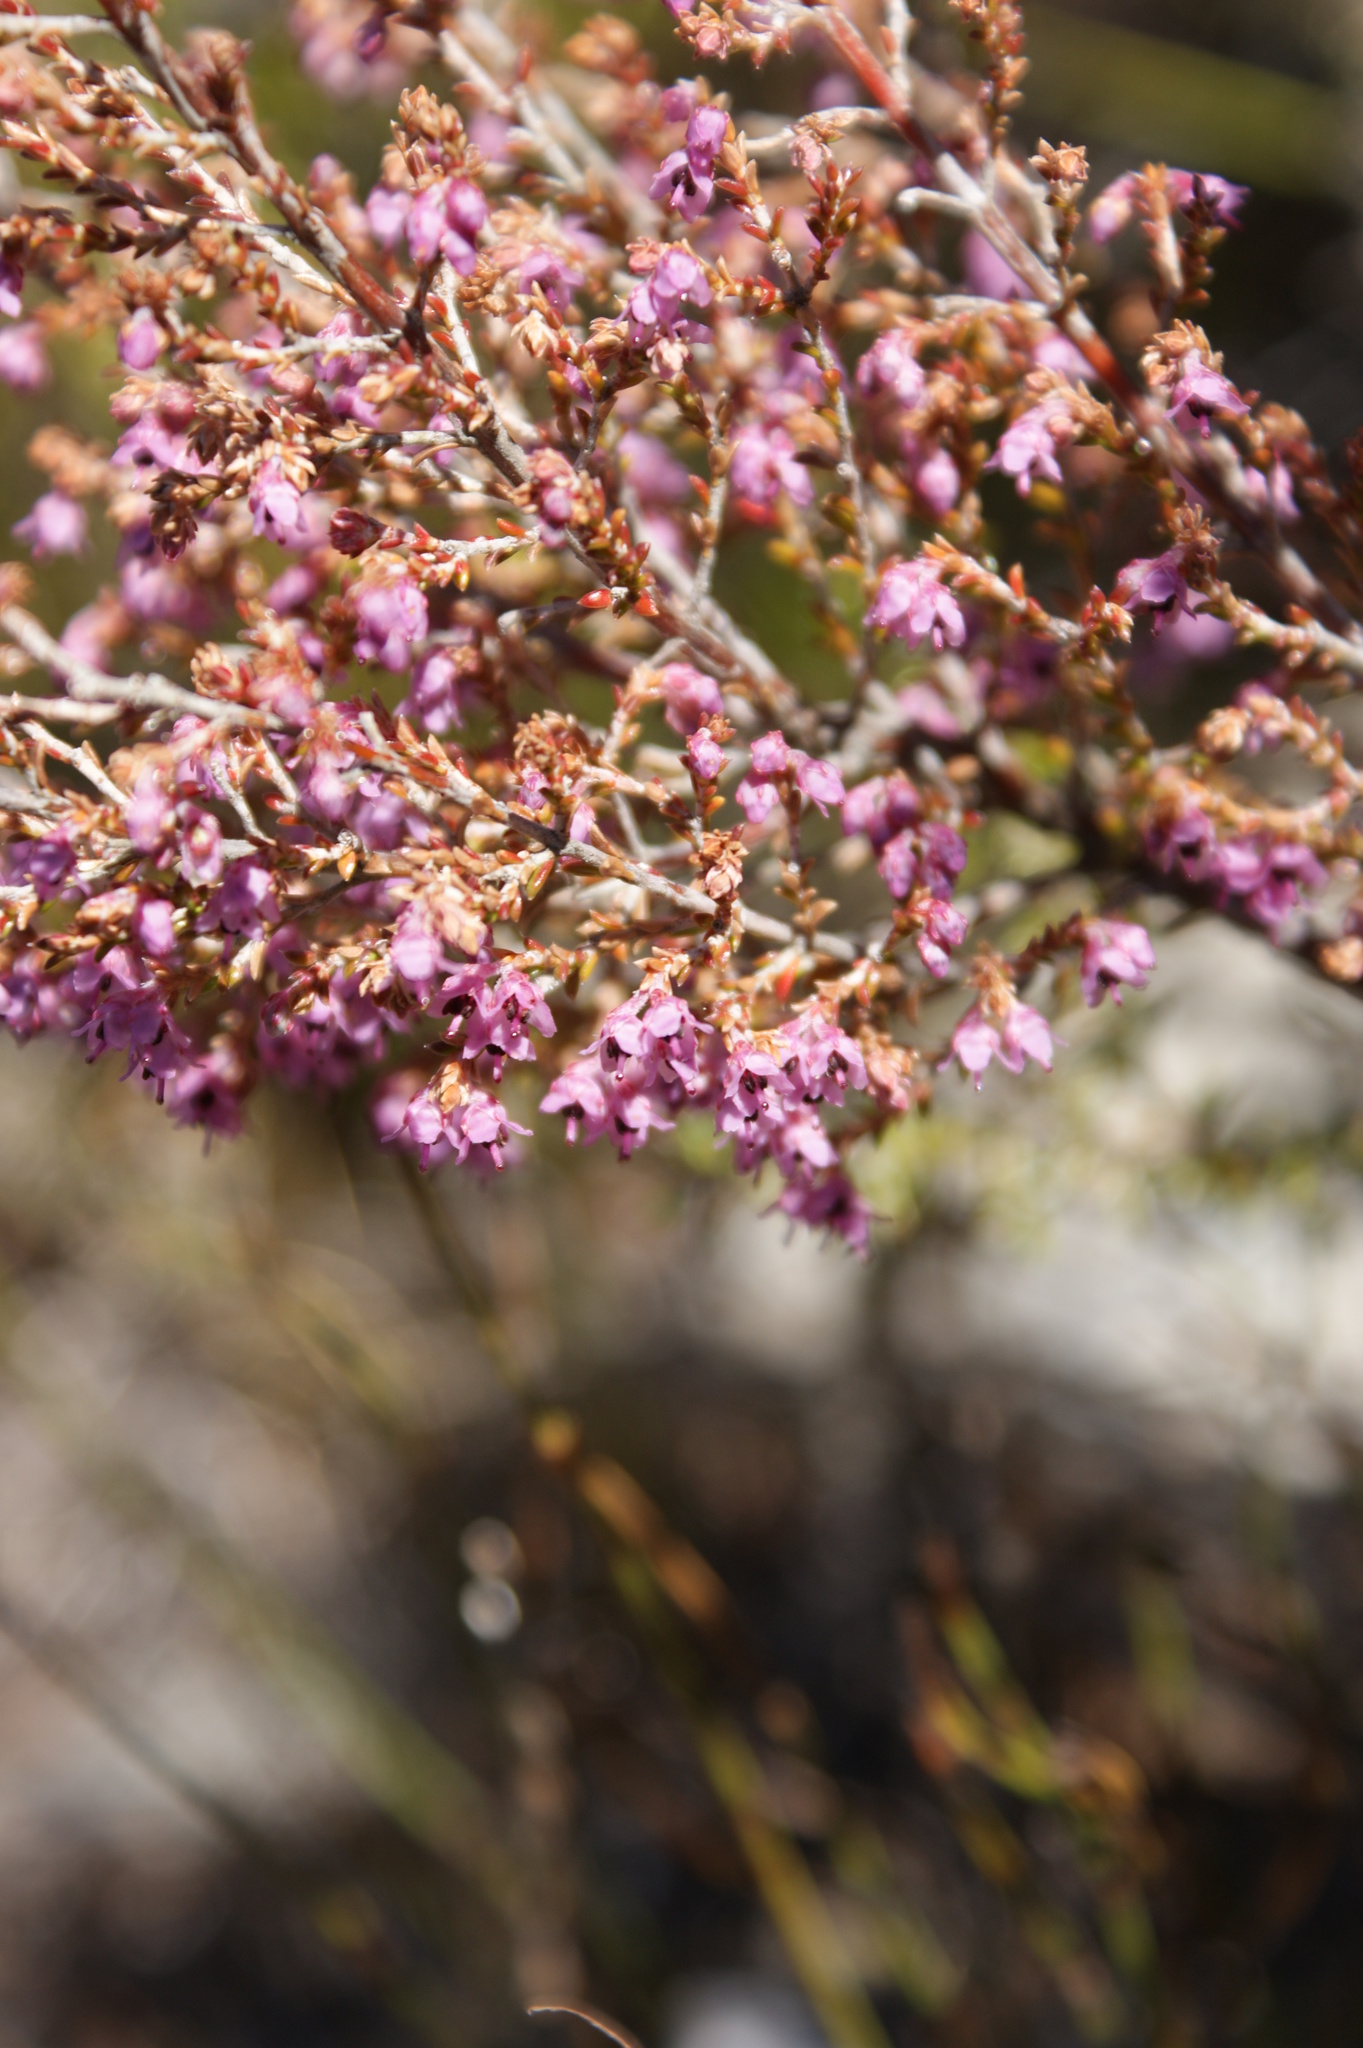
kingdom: Plantae
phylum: Tracheophyta
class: Magnoliopsida
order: Ericales
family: Ericaceae
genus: Erica
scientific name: Erica adnata
